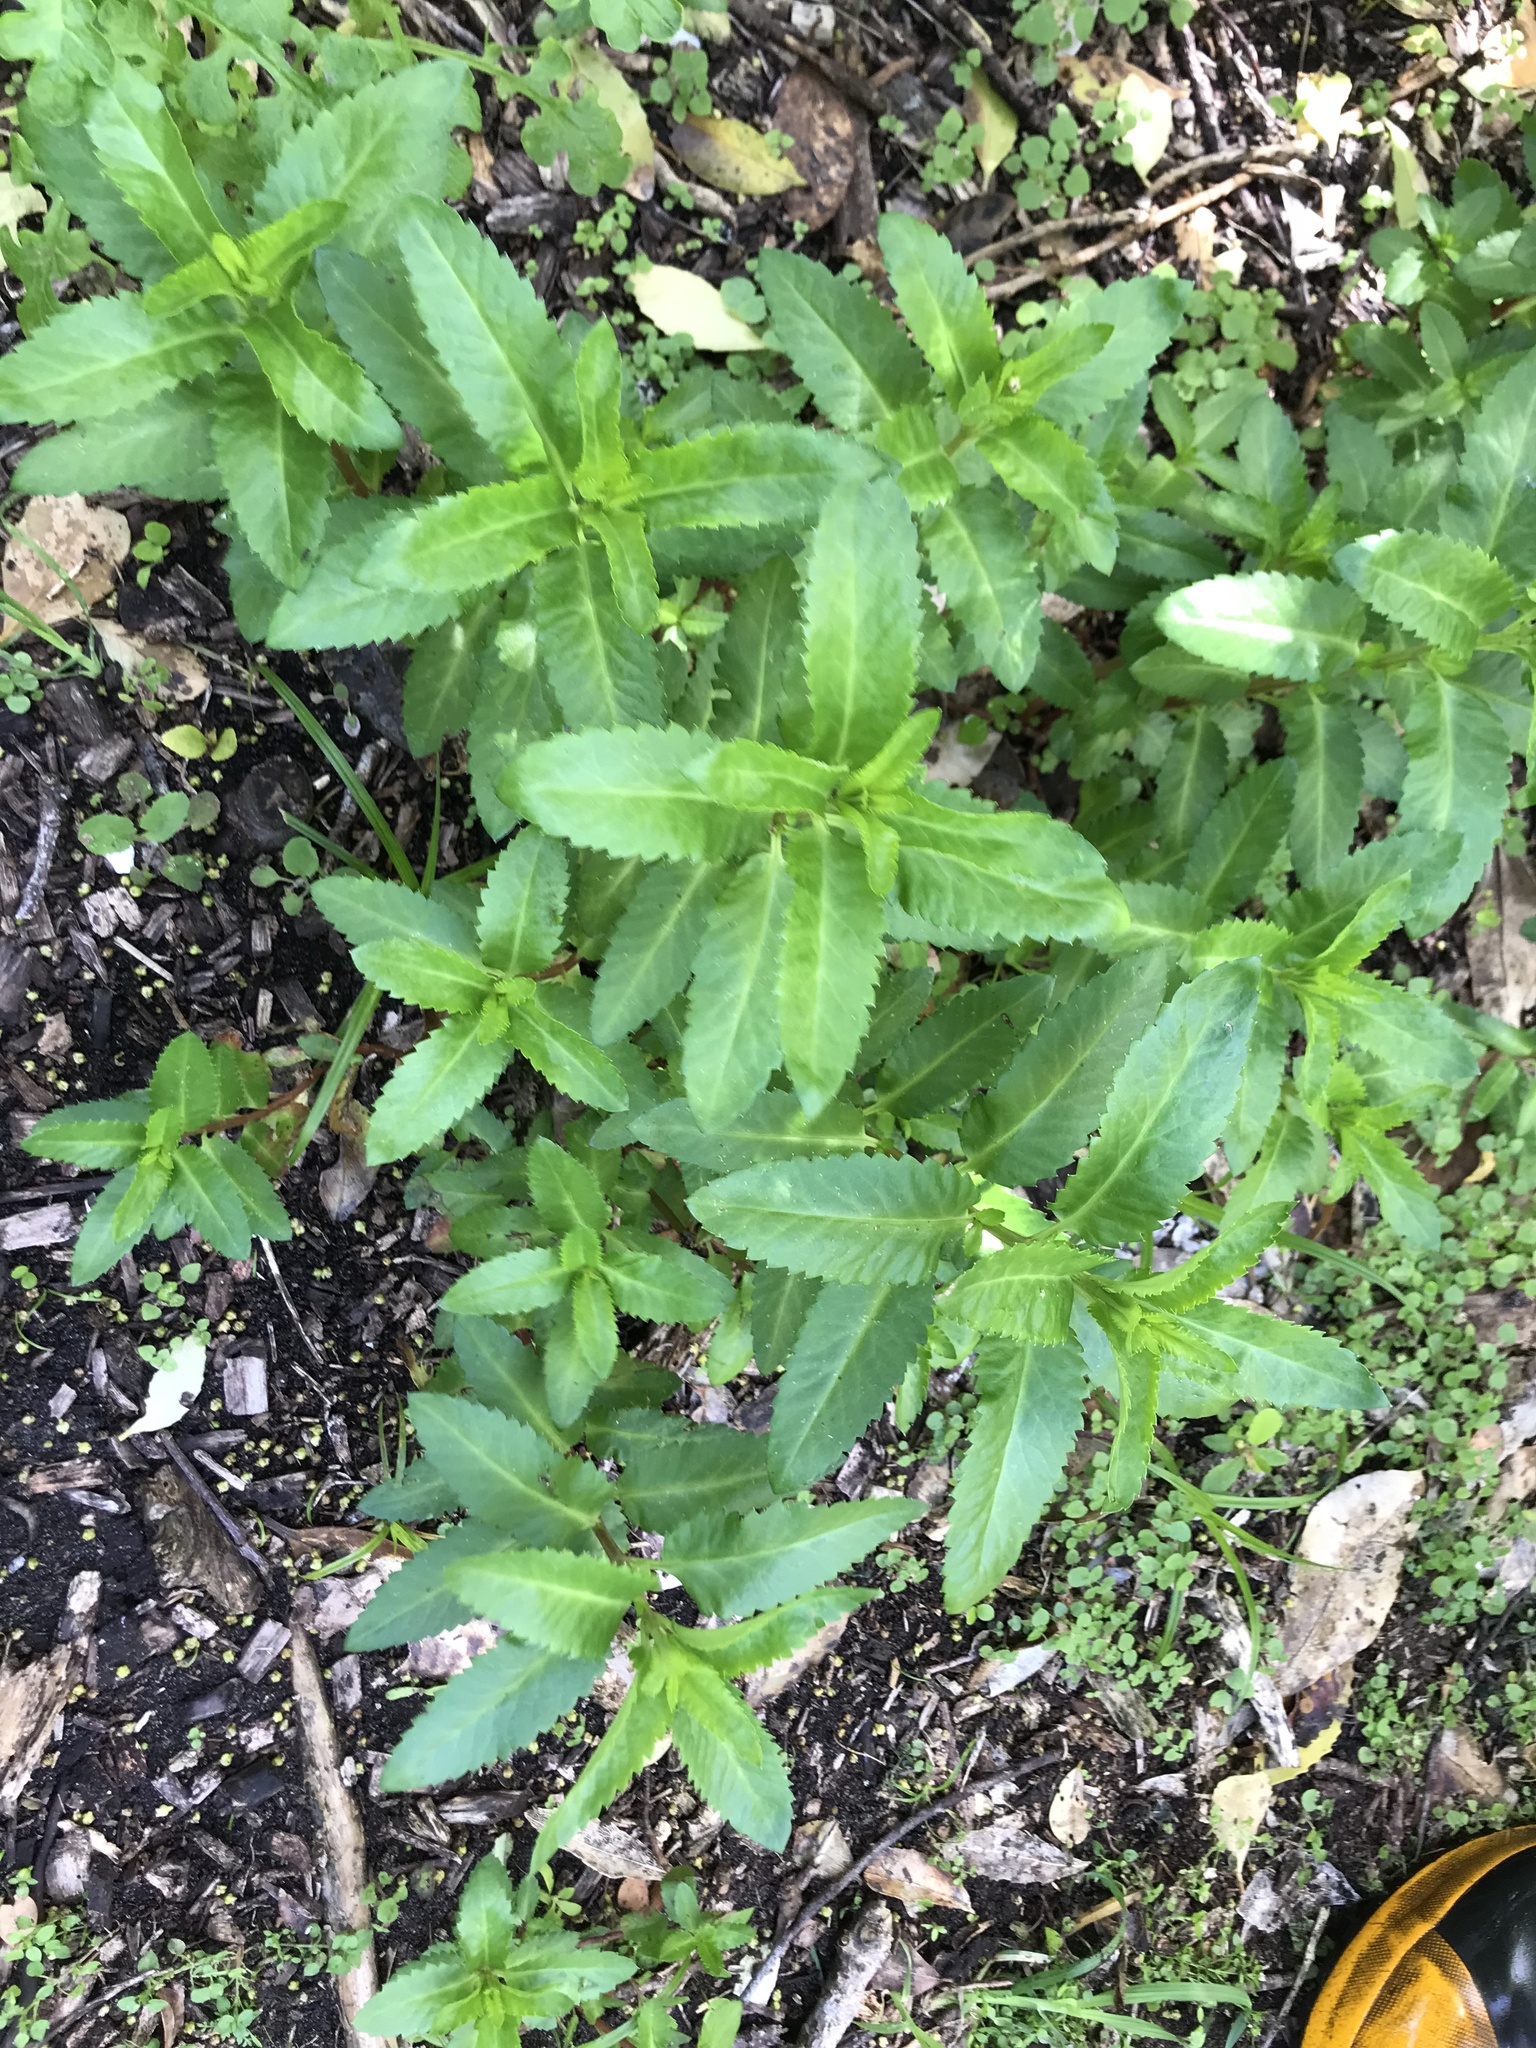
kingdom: Plantae
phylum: Tracheophyta
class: Magnoliopsida
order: Saxifragales
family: Haloragaceae
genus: Haloragis
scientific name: Haloragis erecta
